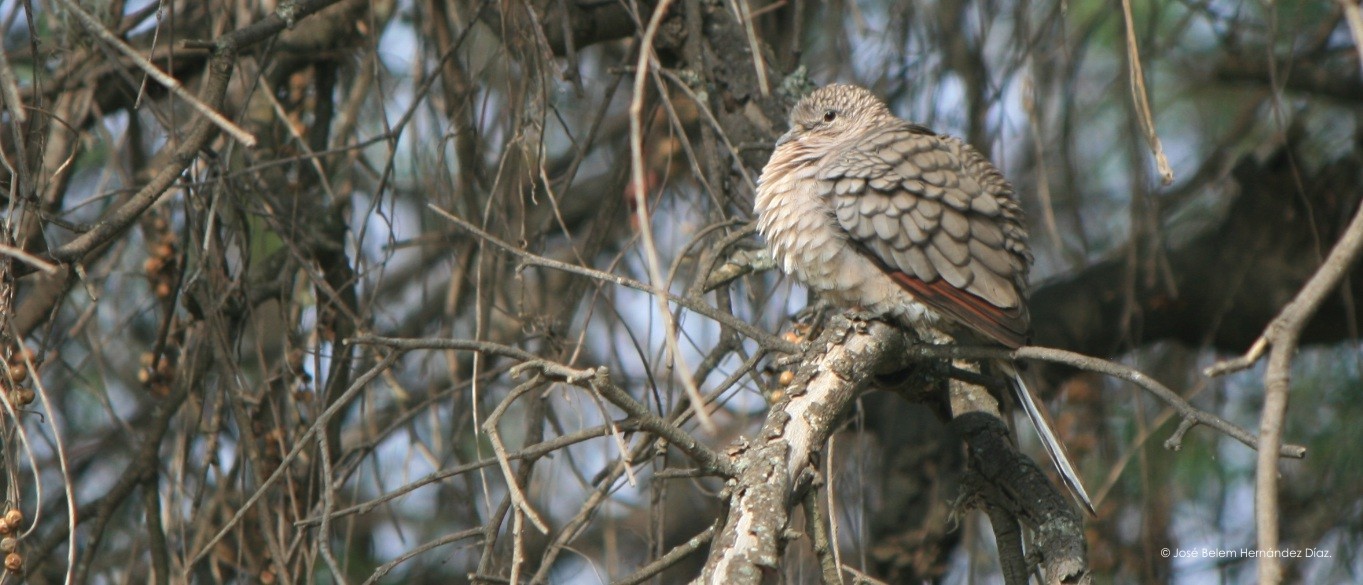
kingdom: Animalia
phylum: Chordata
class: Aves
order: Columbiformes
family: Columbidae
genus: Columbina
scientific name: Columbina inca
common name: Inca dove
